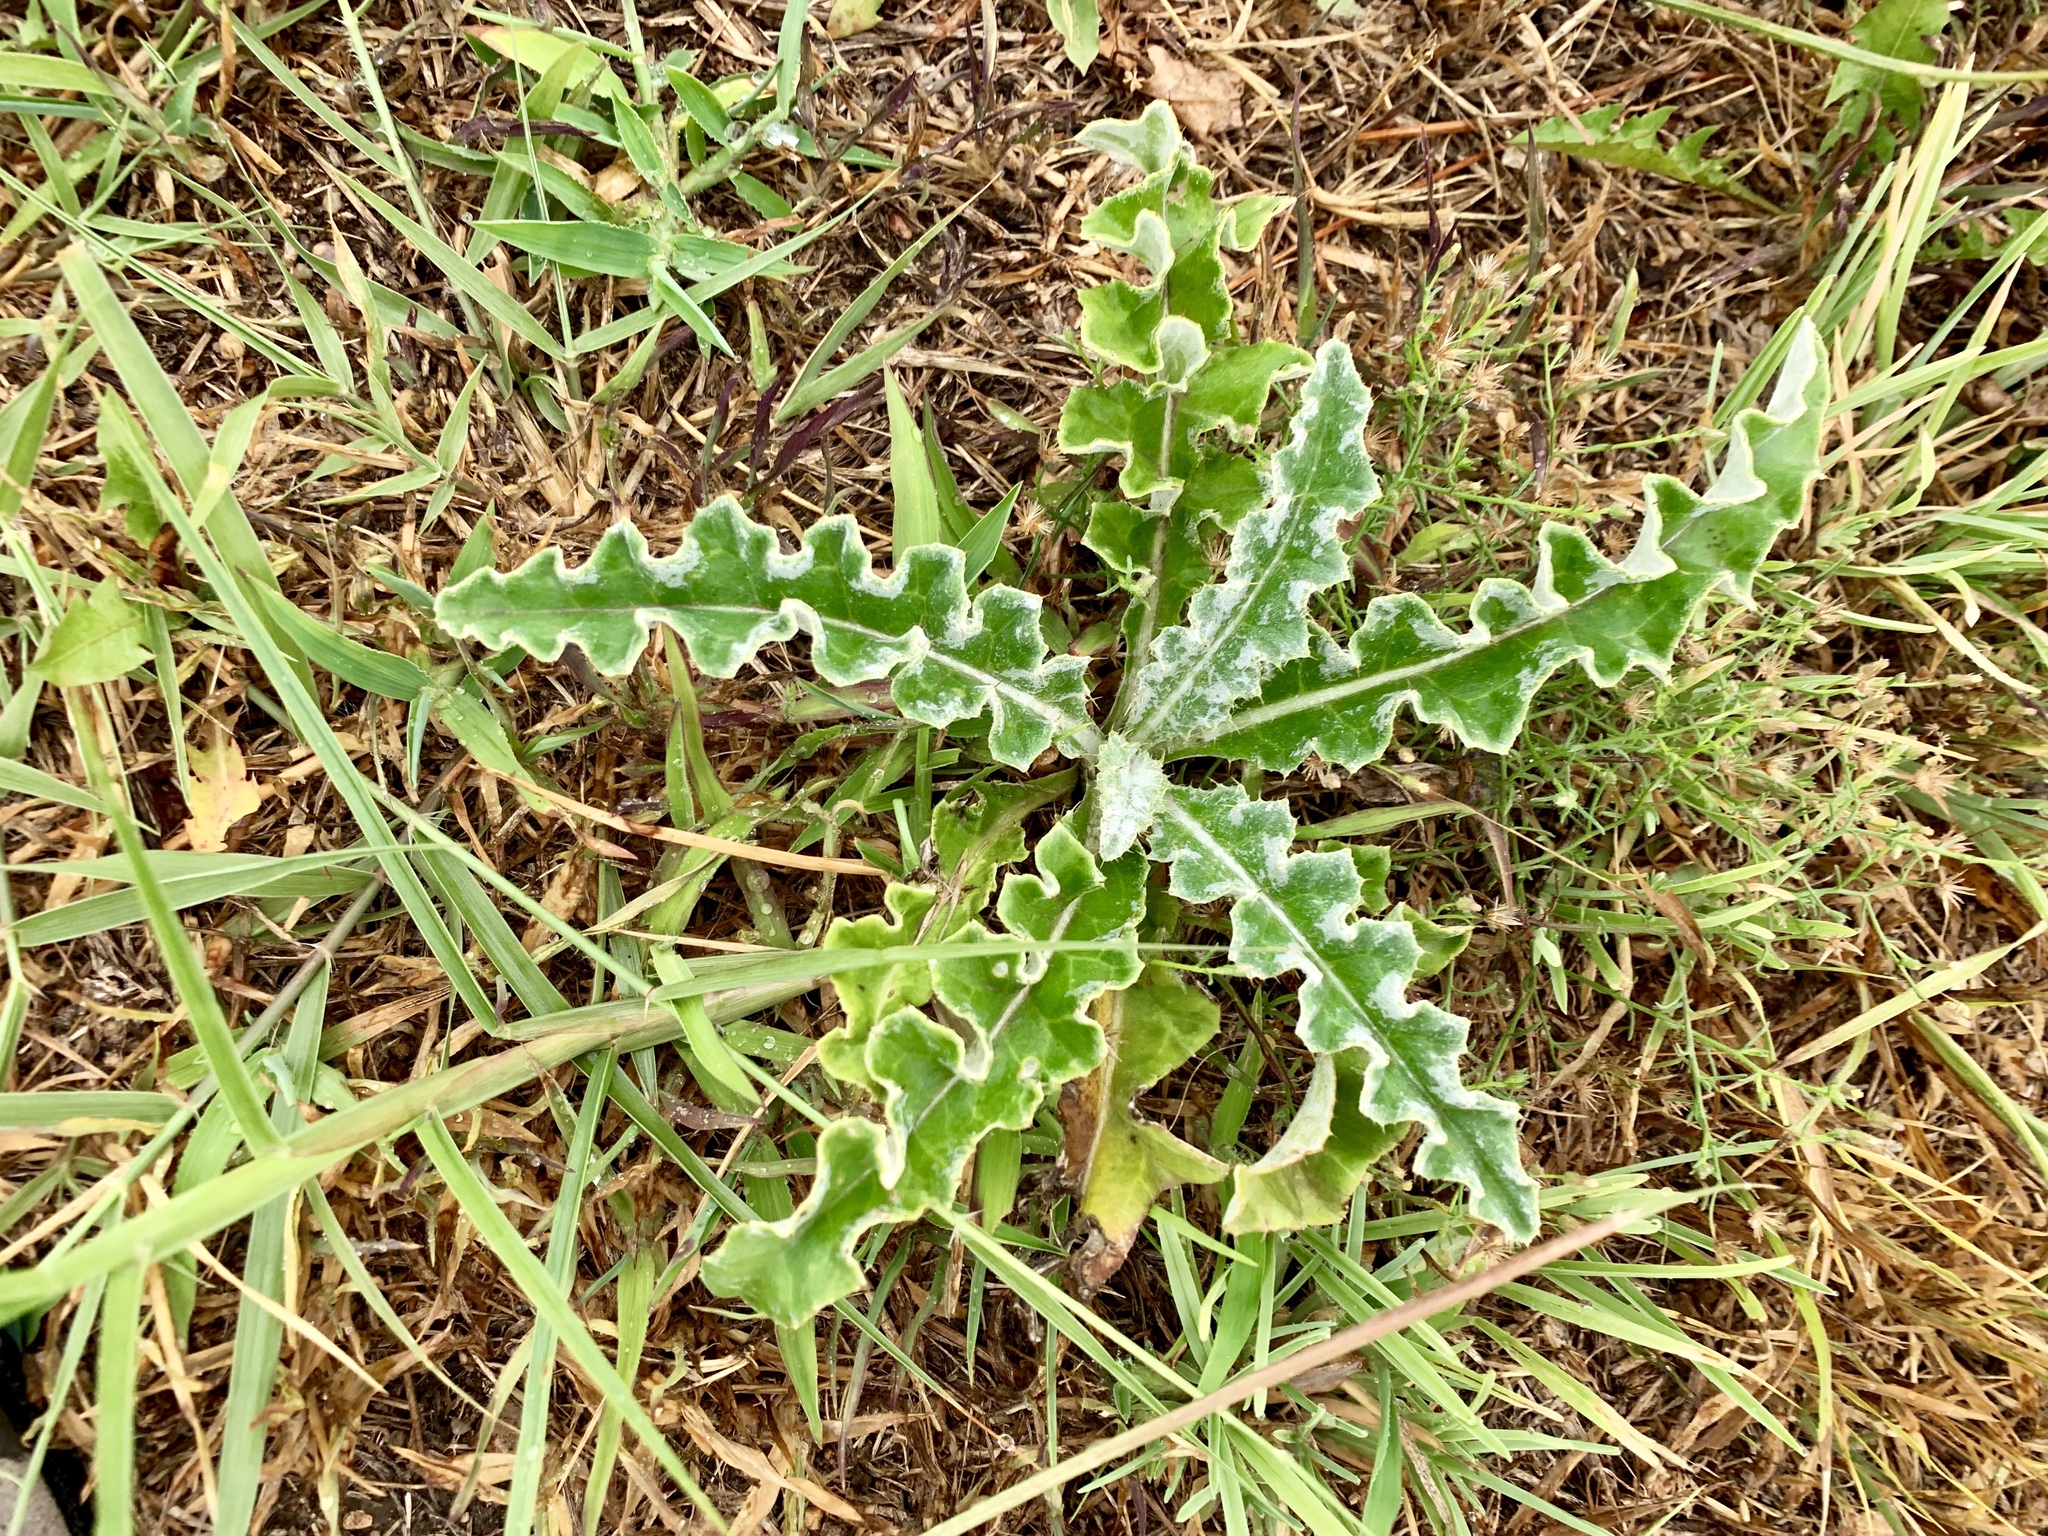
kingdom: Plantae
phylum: Tracheophyta
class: Magnoliopsida
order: Asterales
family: Asteraceae
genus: Cirsium
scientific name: Cirsium undulatum
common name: Pasture thistle
